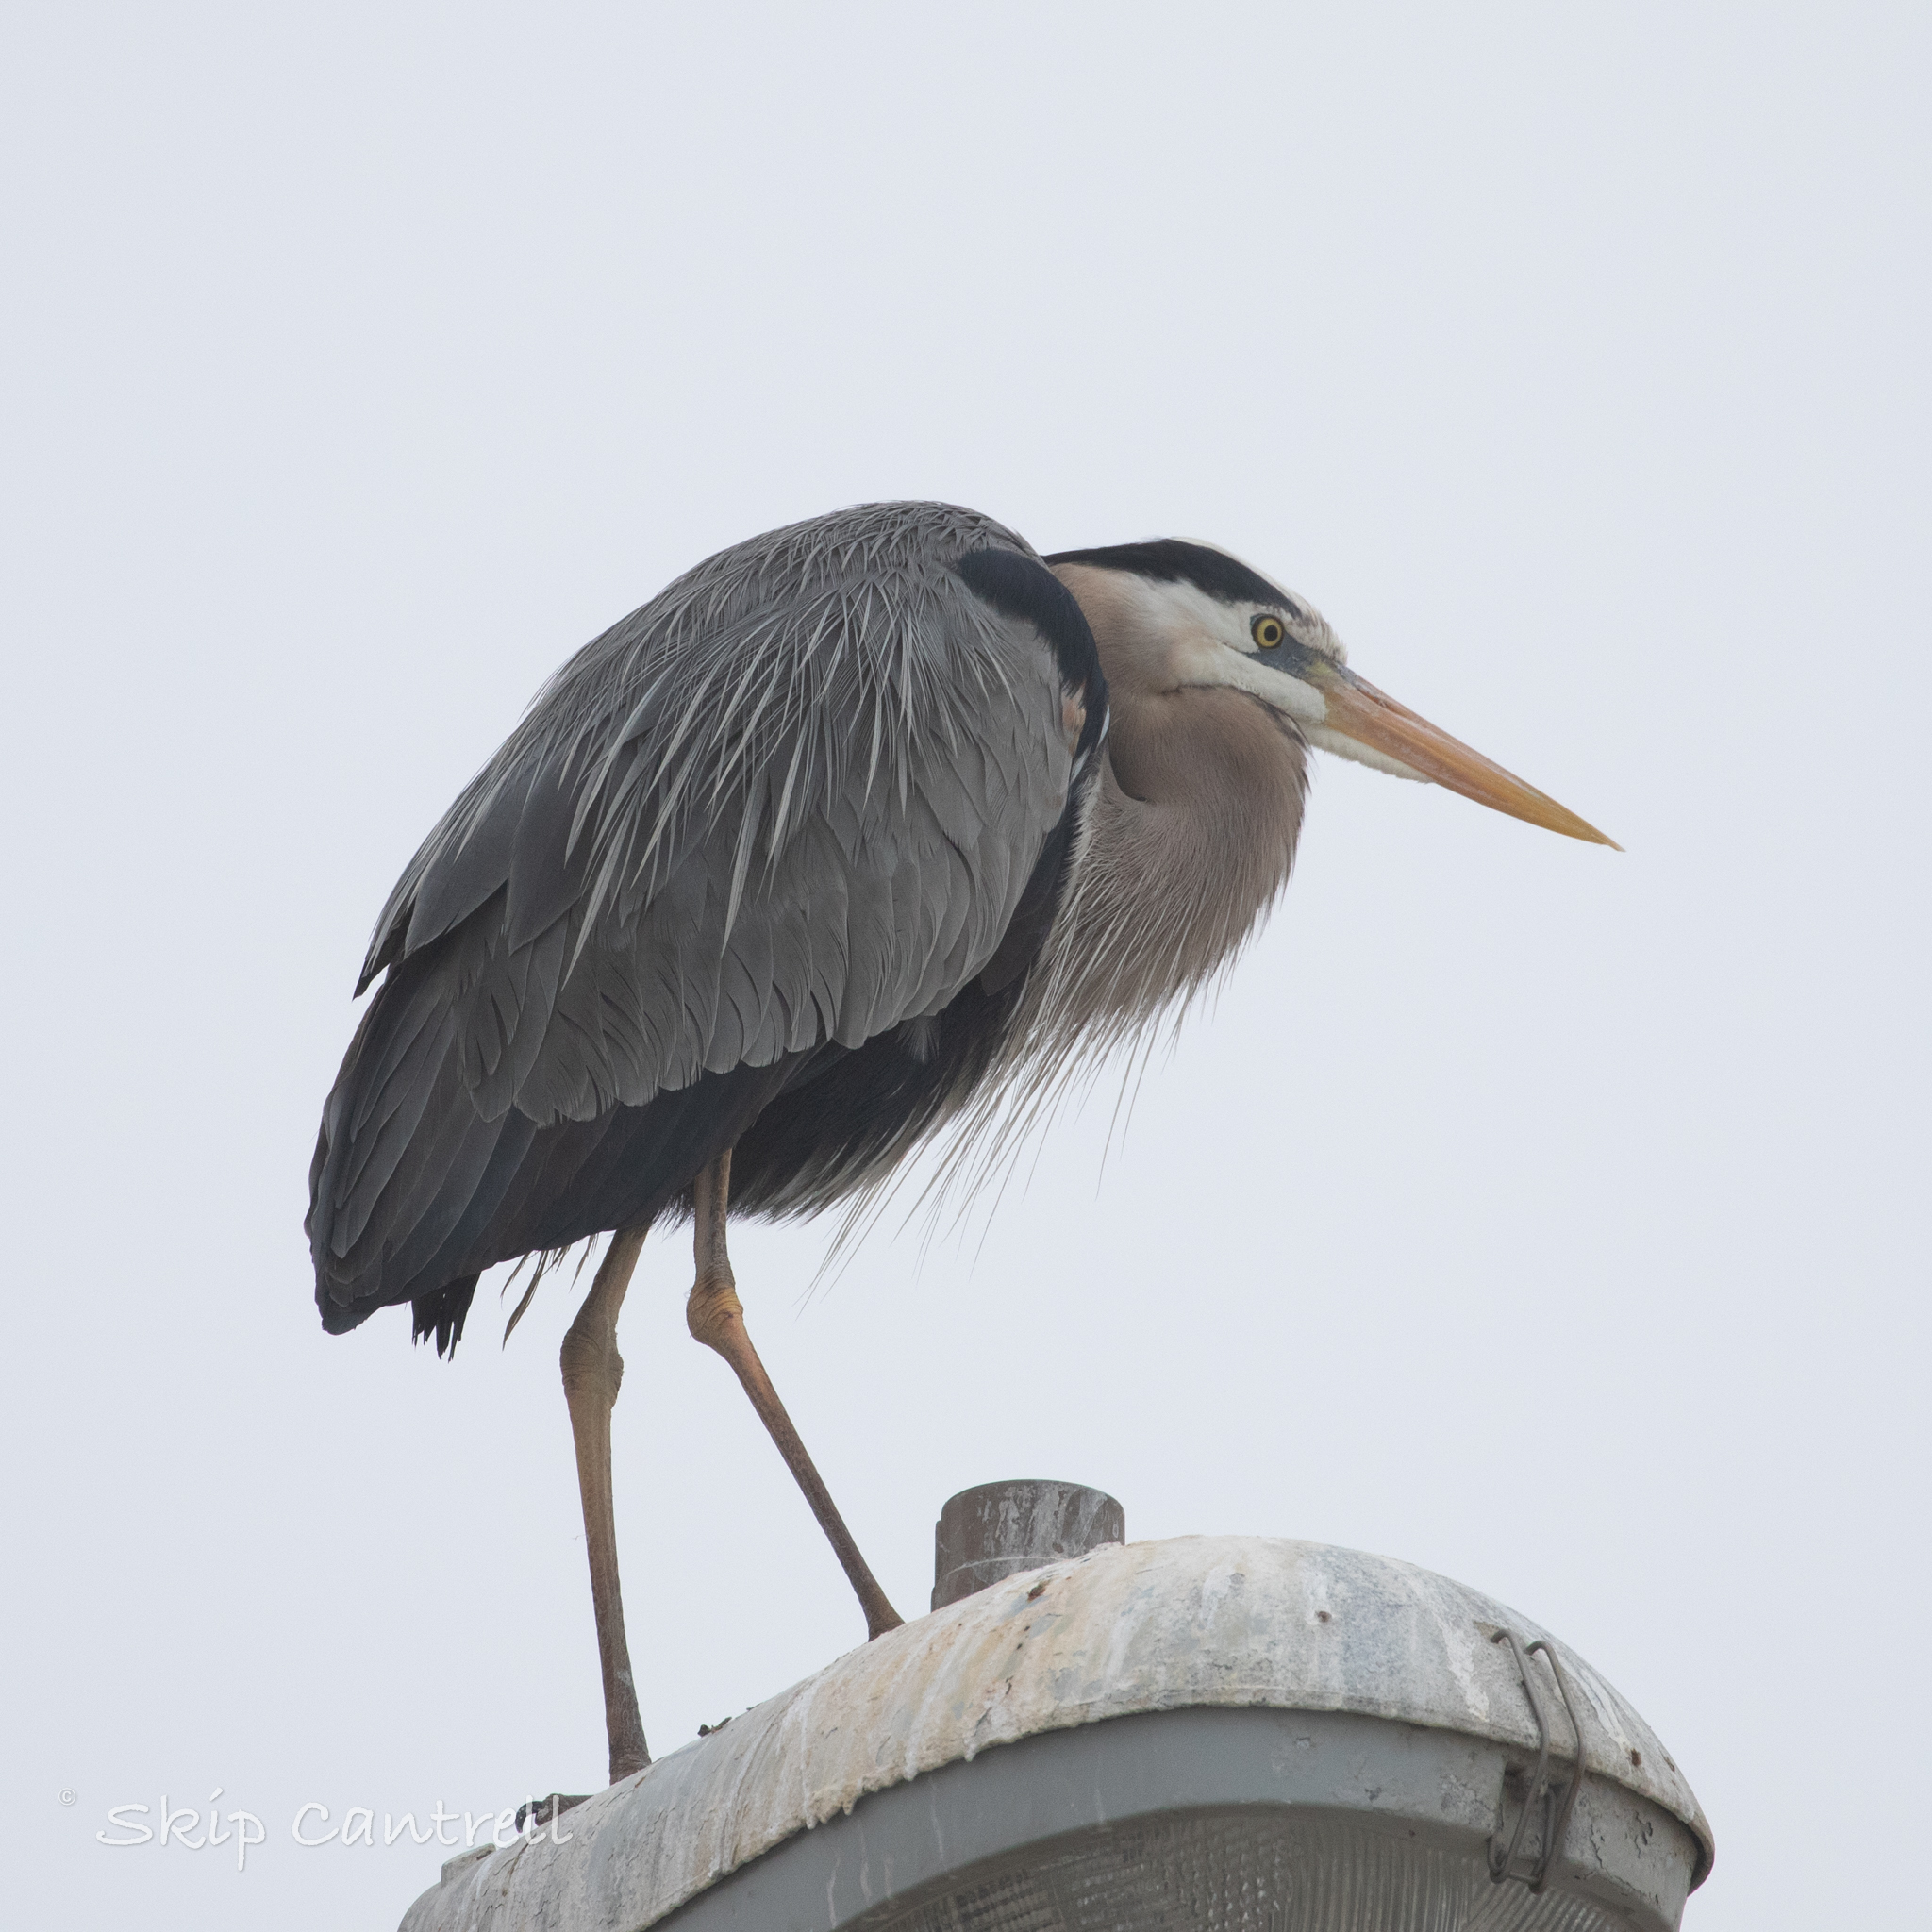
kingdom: Animalia
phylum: Chordata
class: Aves
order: Pelecaniformes
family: Ardeidae
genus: Ardea
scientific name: Ardea herodias
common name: Great blue heron
